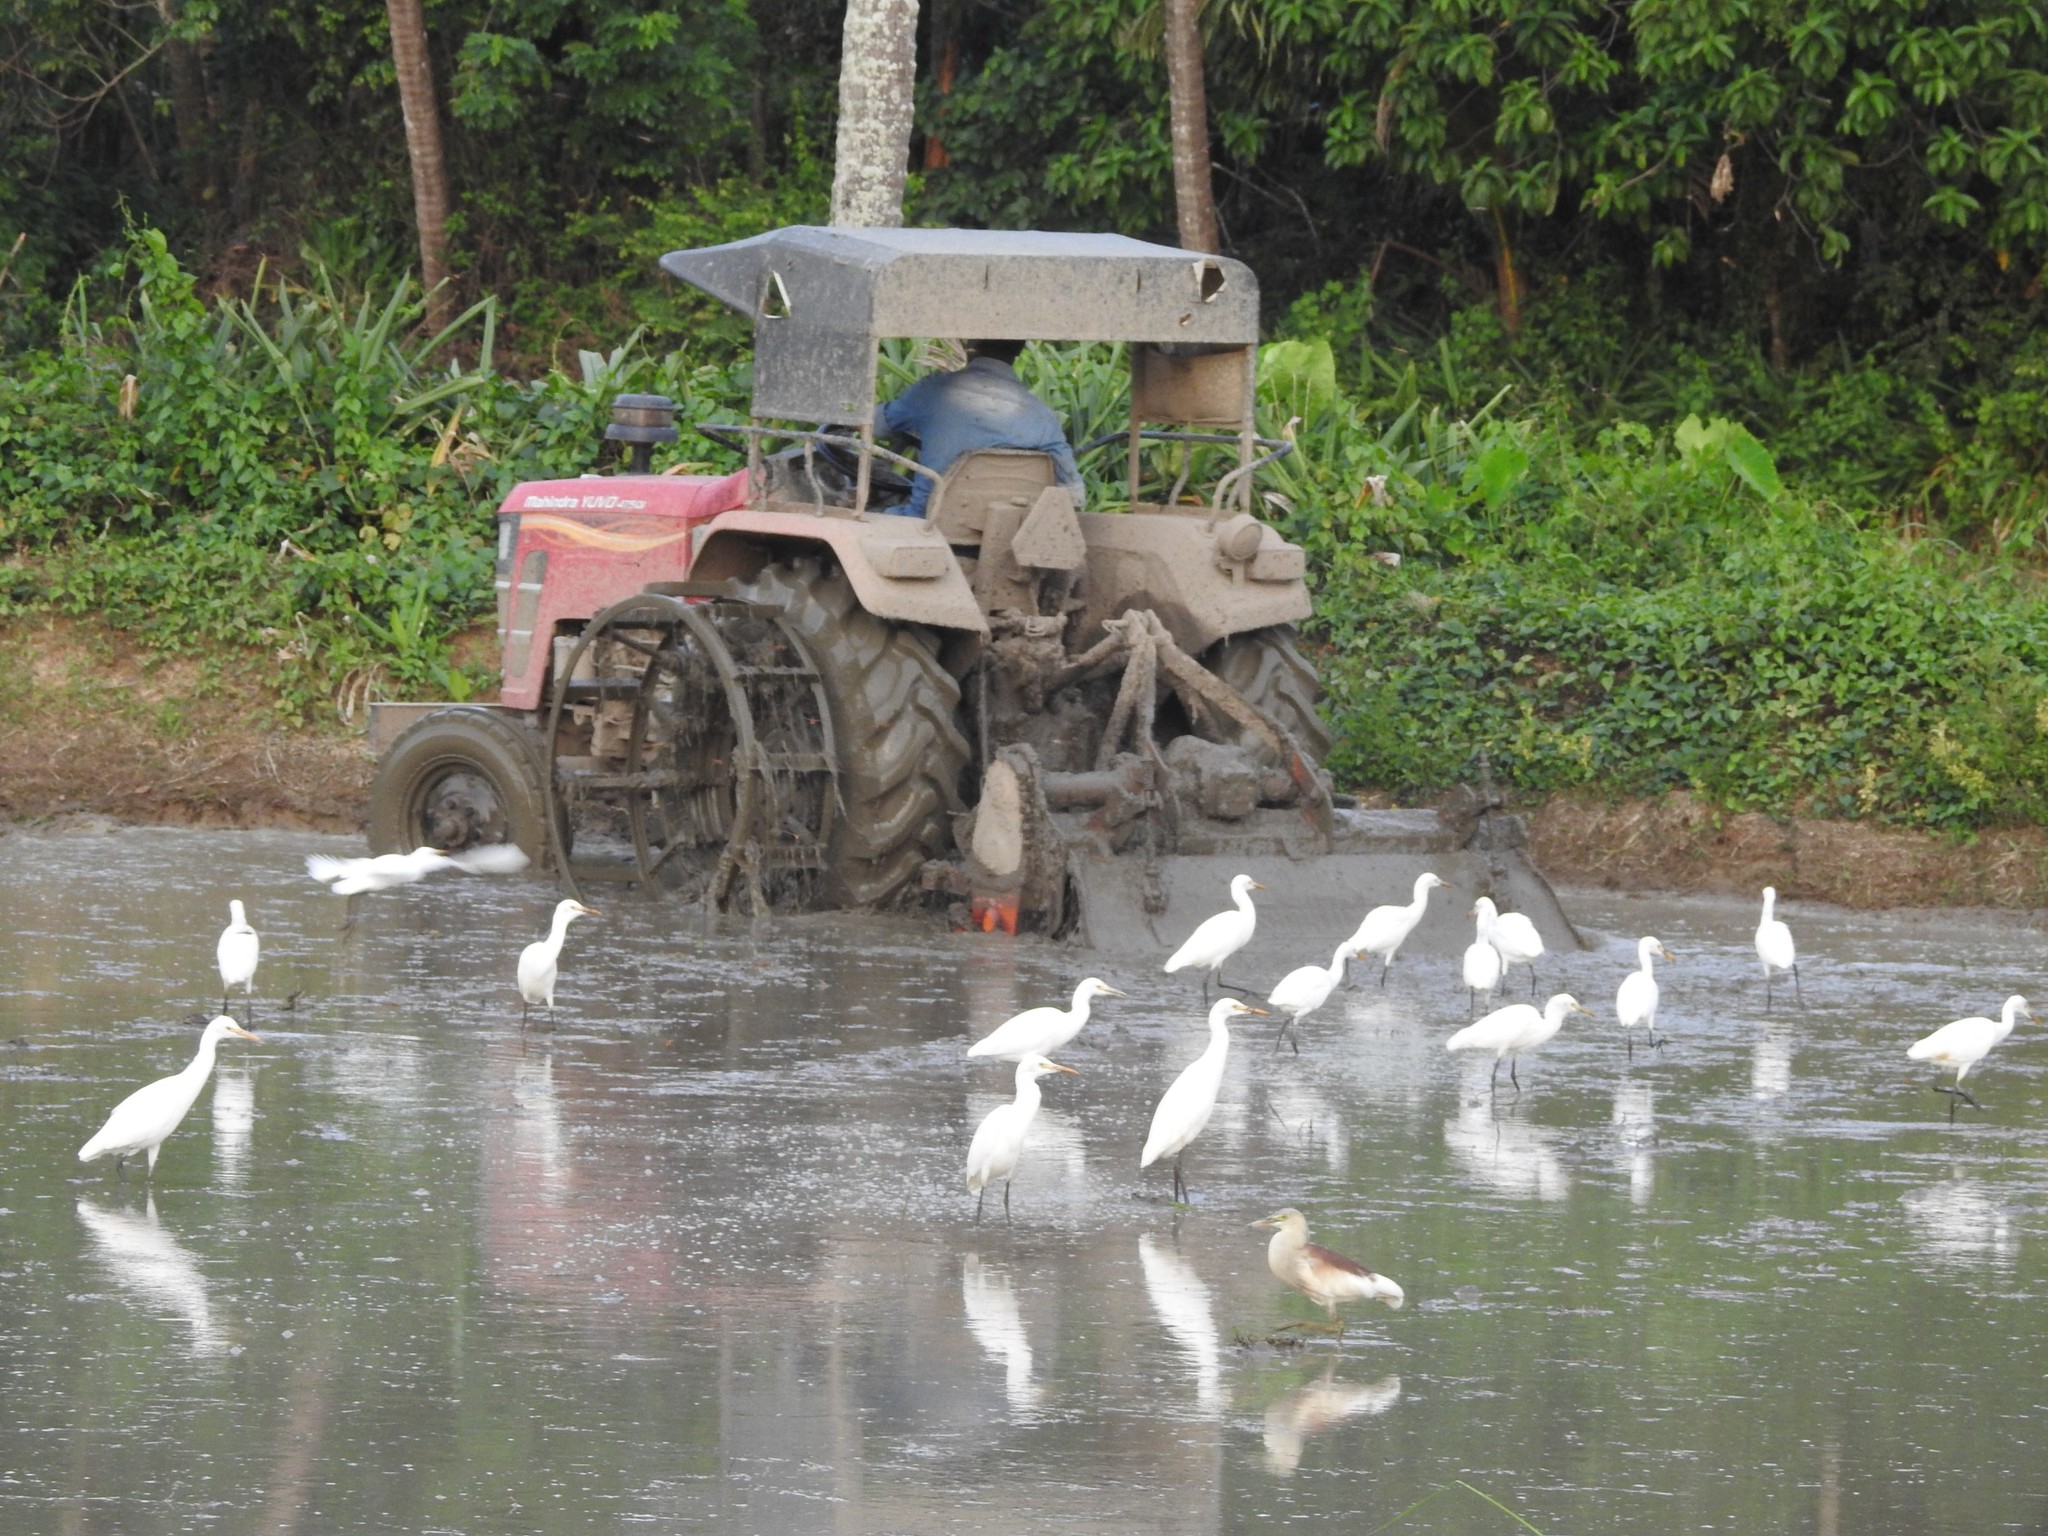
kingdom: Animalia
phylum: Chordata
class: Aves
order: Pelecaniformes
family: Ardeidae
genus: Bubulcus
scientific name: Bubulcus coromandus
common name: Eastern cattle egret
